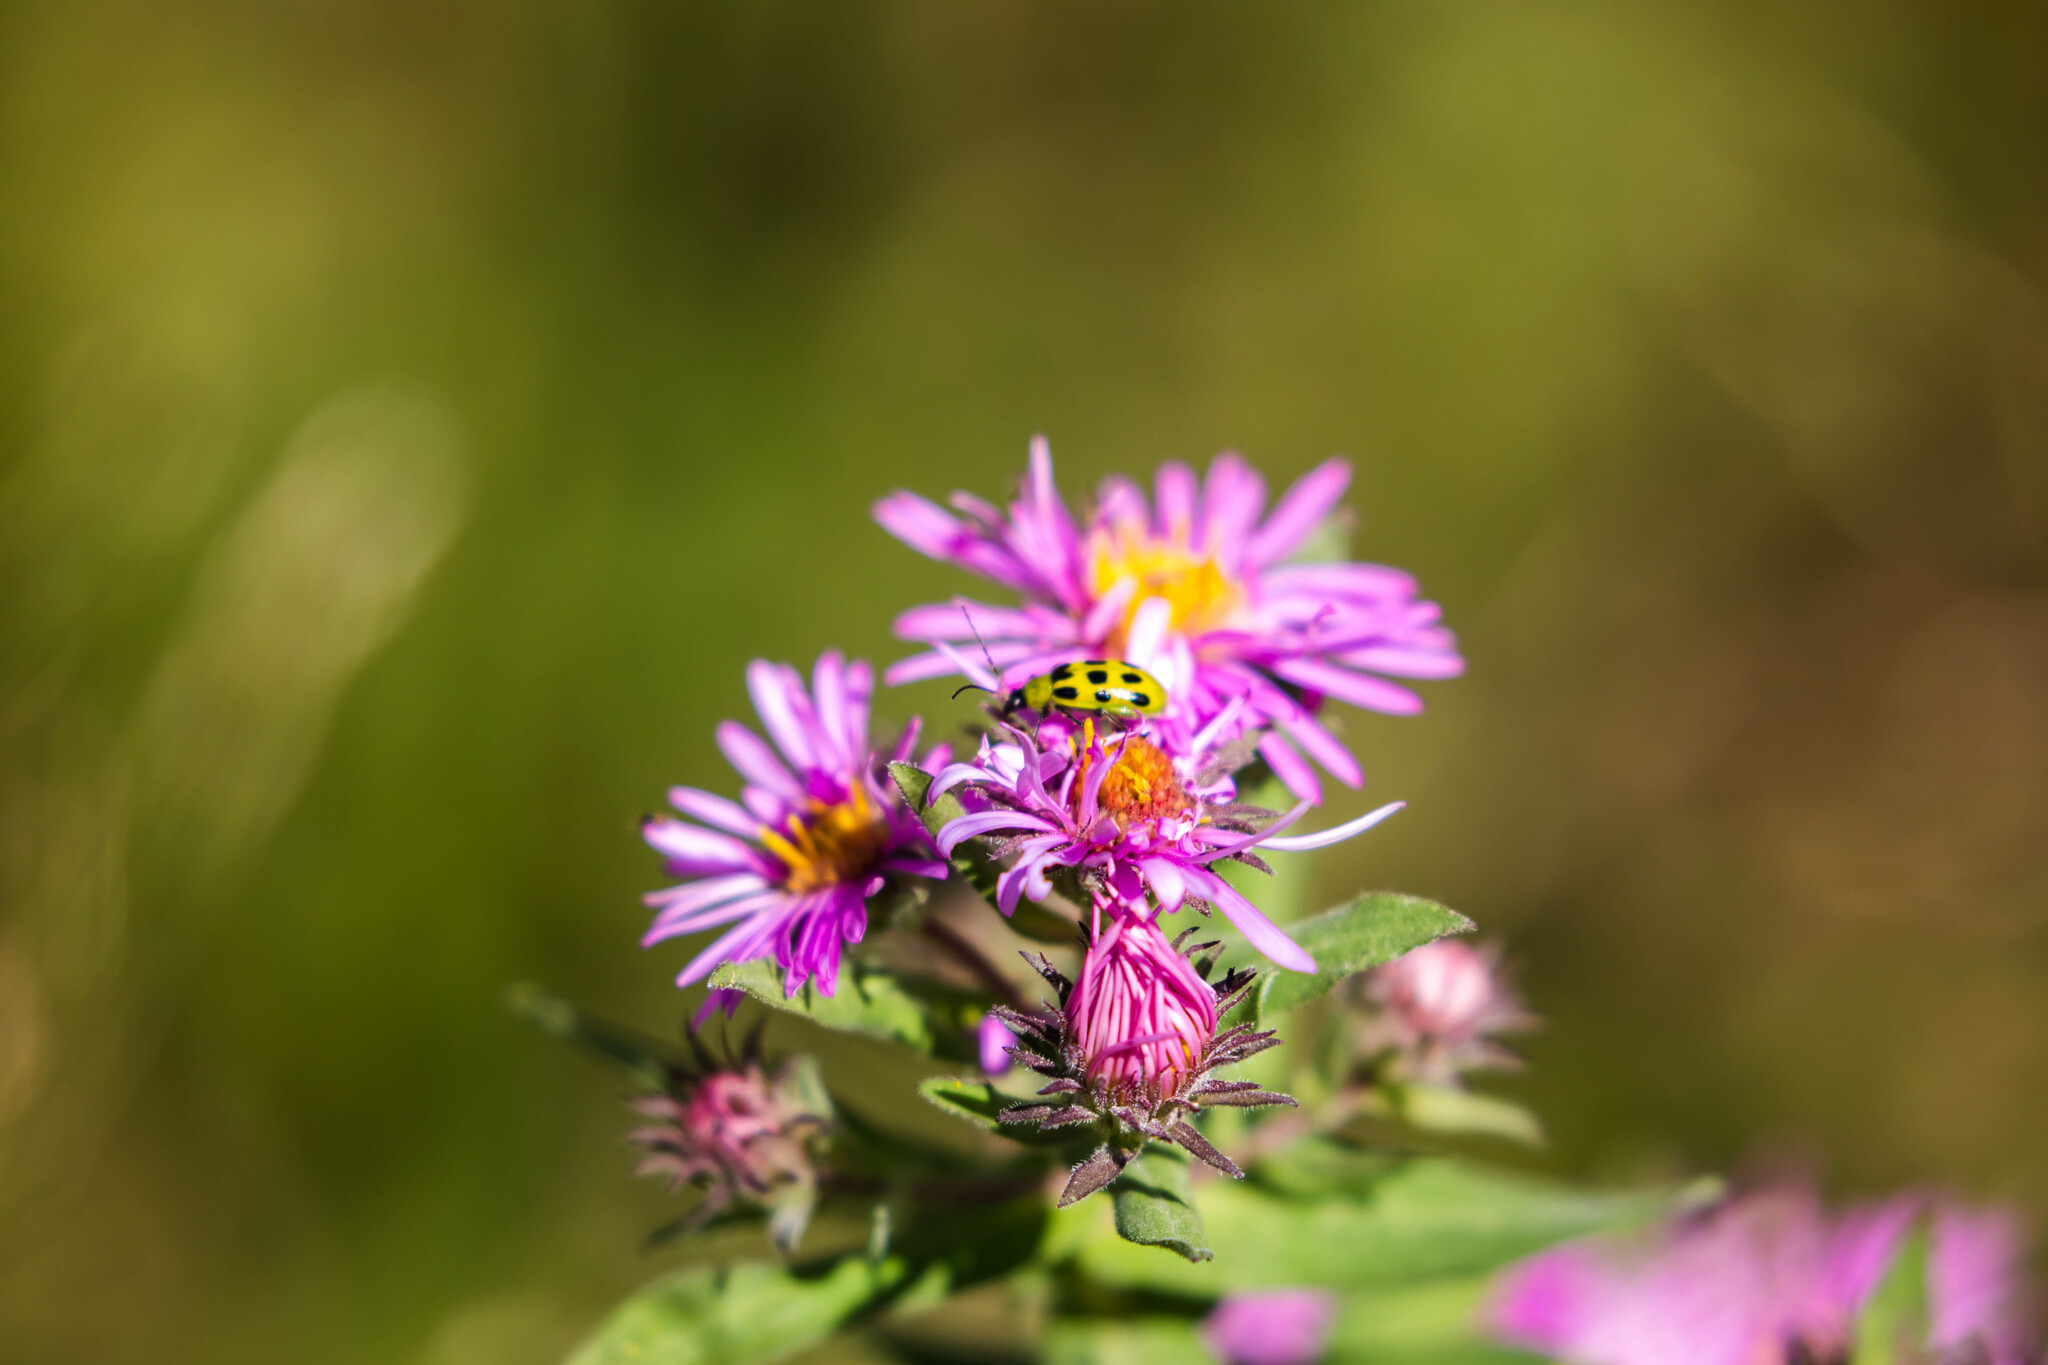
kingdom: Animalia
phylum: Arthropoda
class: Insecta
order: Coleoptera
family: Chrysomelidae
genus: Diabrotica
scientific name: Diabrotica undecimpunctata
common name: Spotted cucumber beetle
